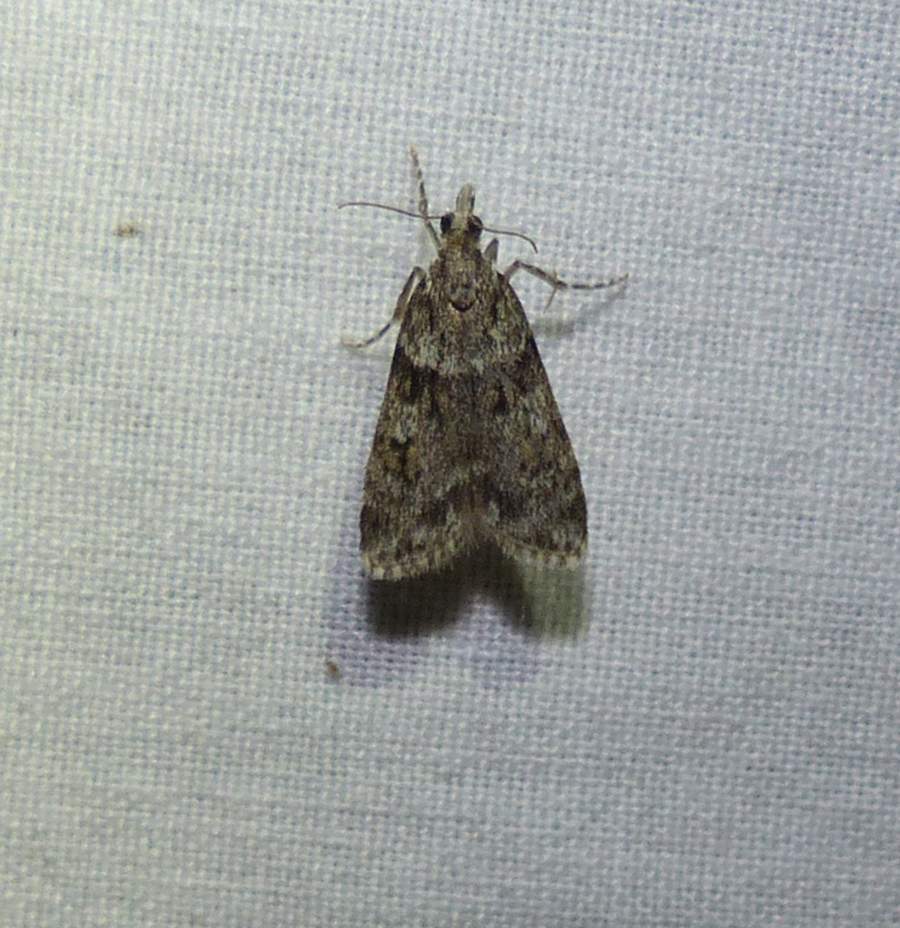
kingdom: Animalia
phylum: Arthropoda
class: Insecta
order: Lepidoptera
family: Crambidae
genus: Scoparia
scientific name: Scoparia biplagialis
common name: Double-striped scoparia moth
